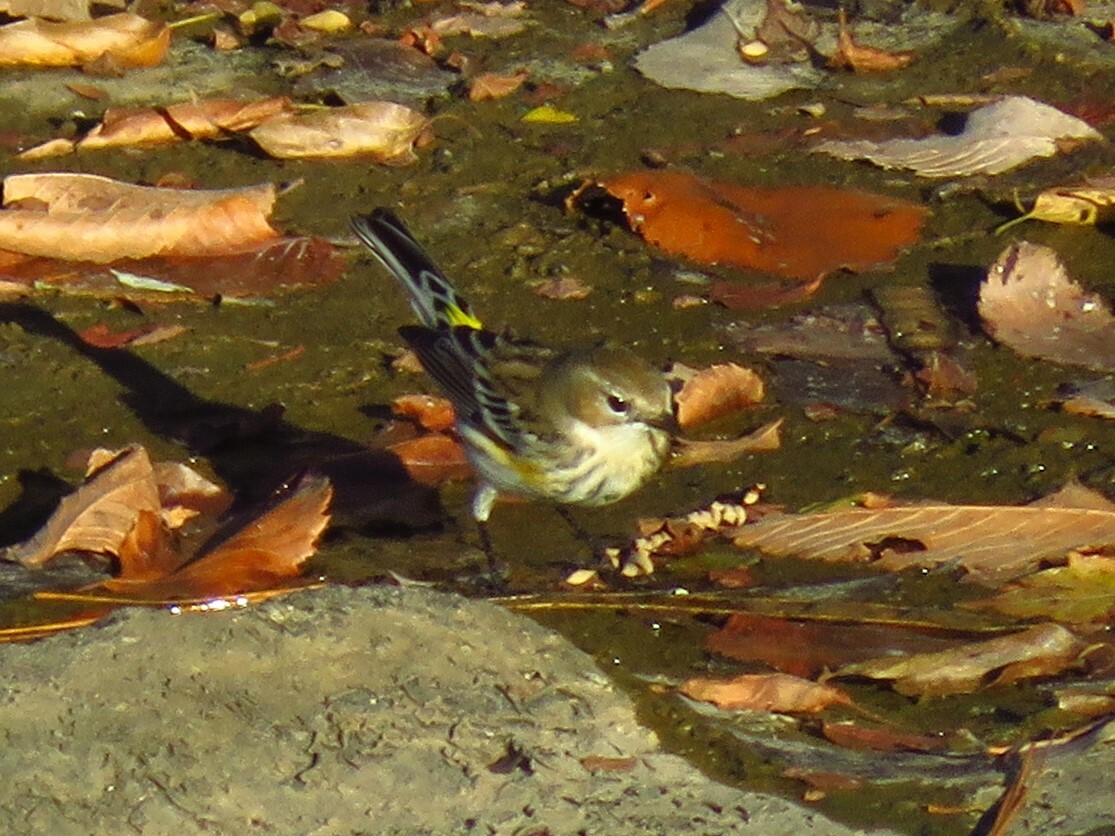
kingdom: Animalia
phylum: Chordata
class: Aves
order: Passeriformes
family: Parulidae
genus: Setophaga
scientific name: Setophaga coronata
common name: Myrtle warbler
